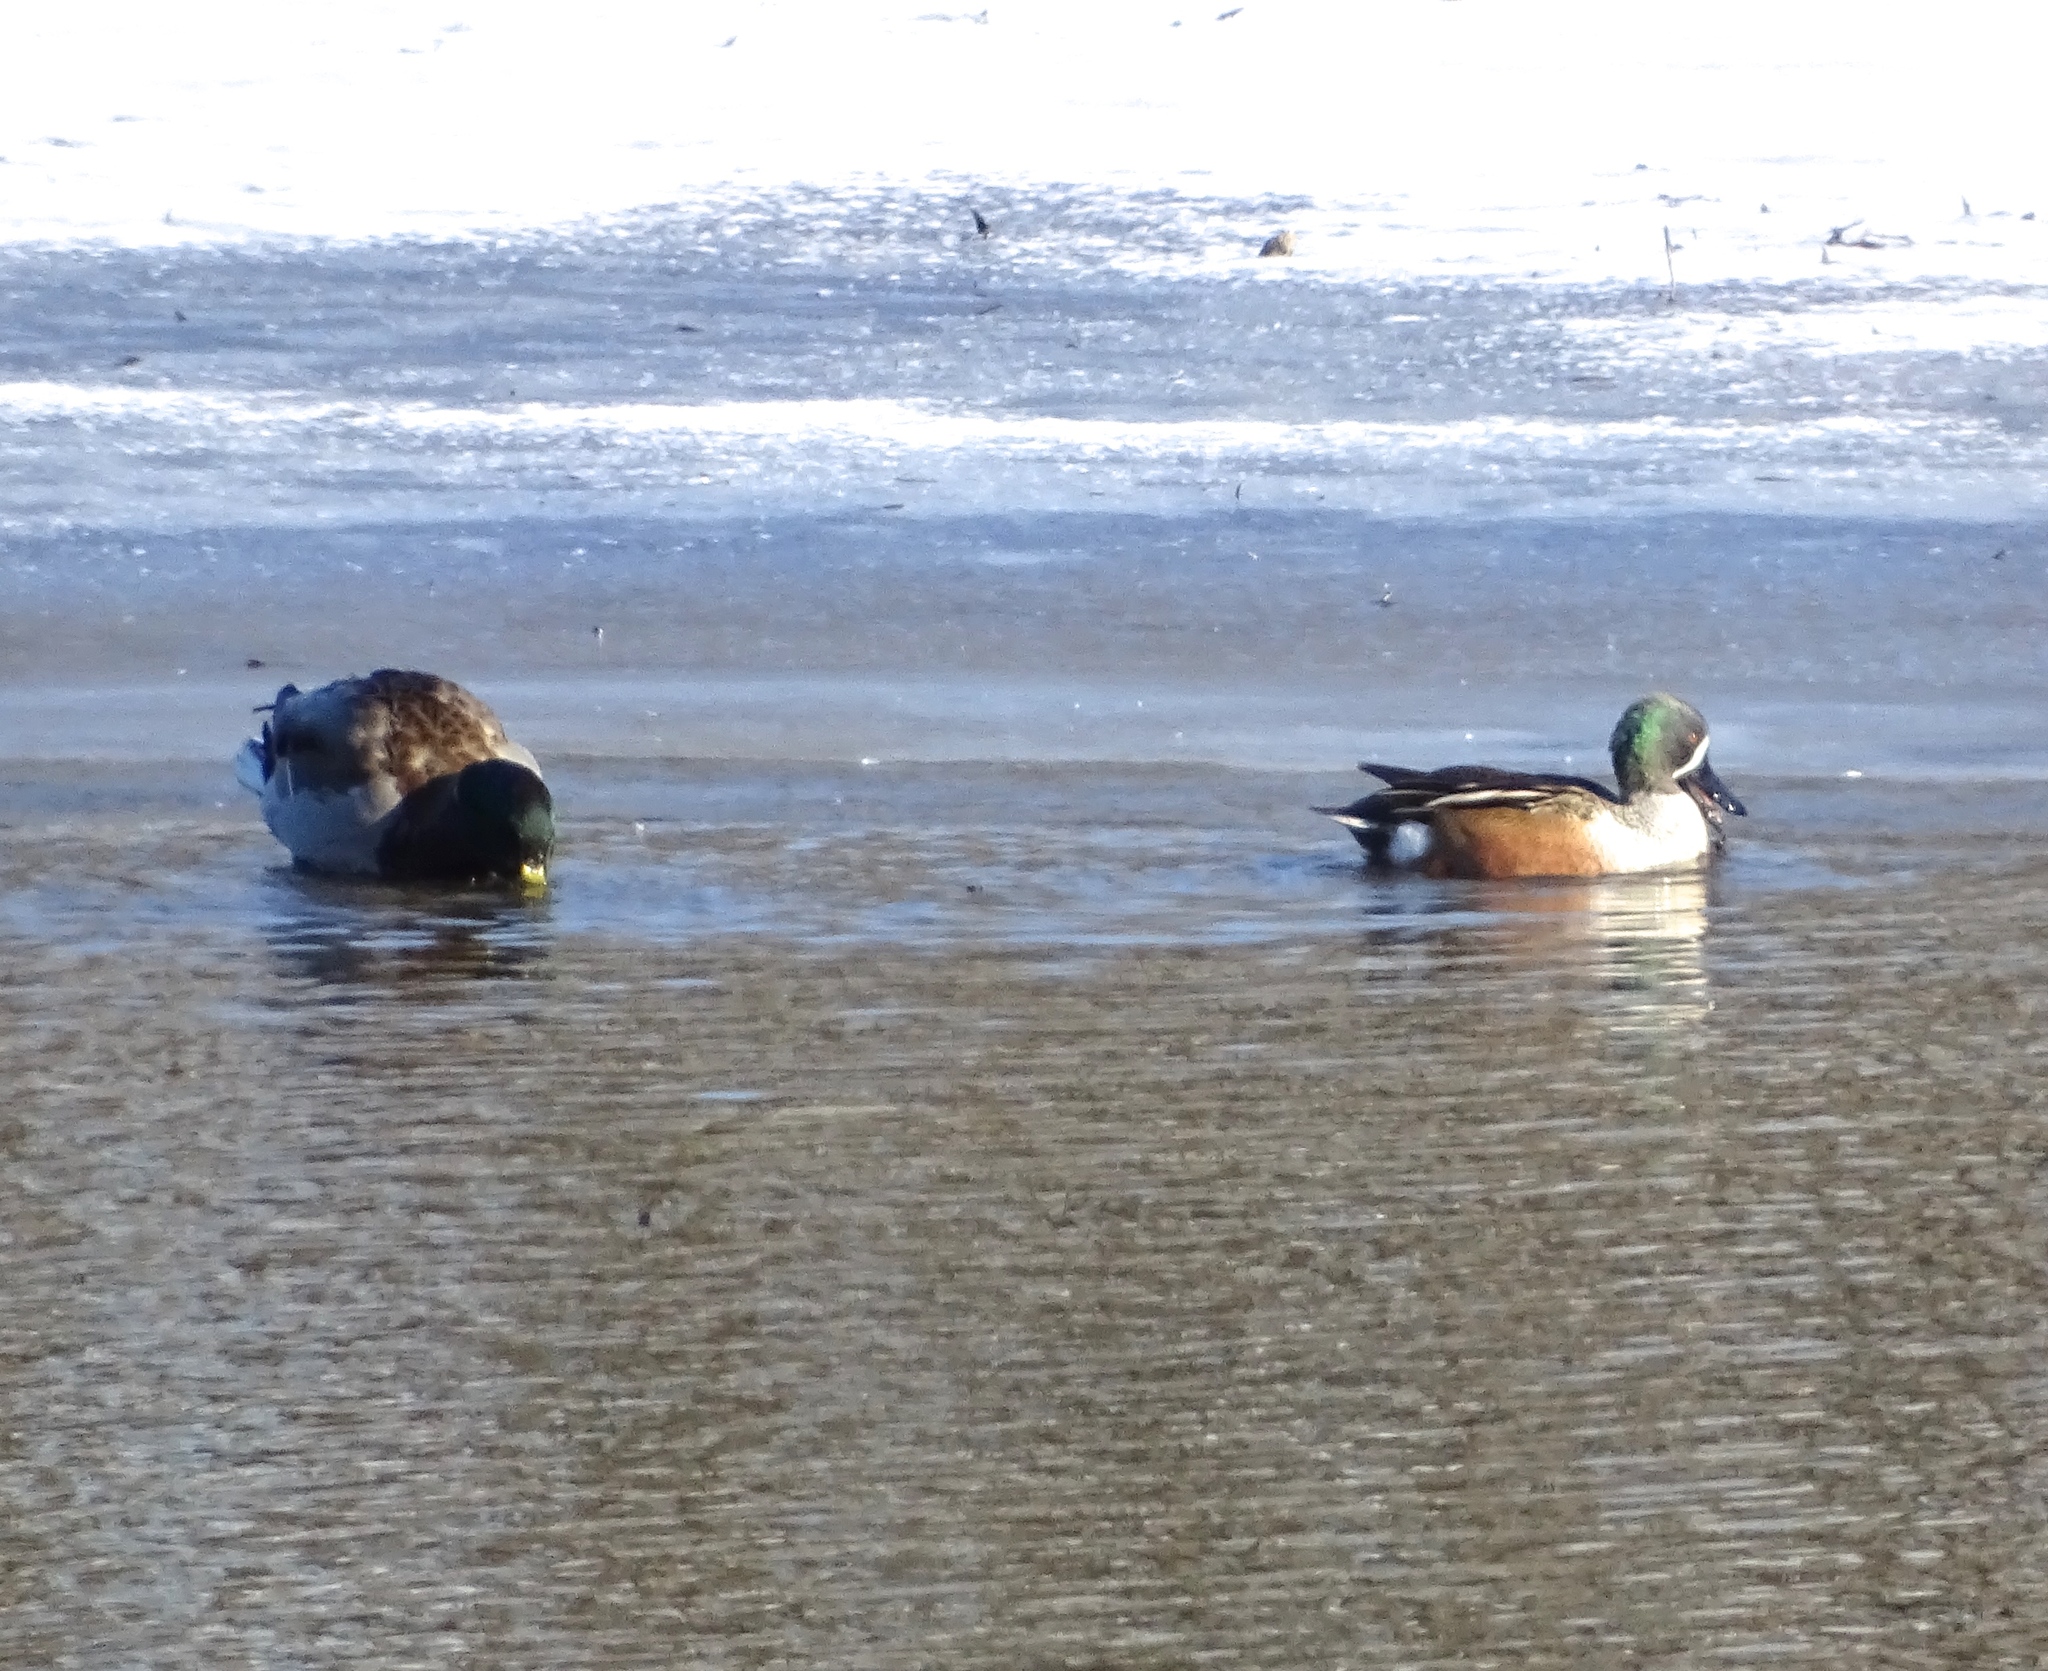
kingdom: Animalia
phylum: Chordata
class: Aves
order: Anseriformes
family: Anatidae
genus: Spatula
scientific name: Spatula
